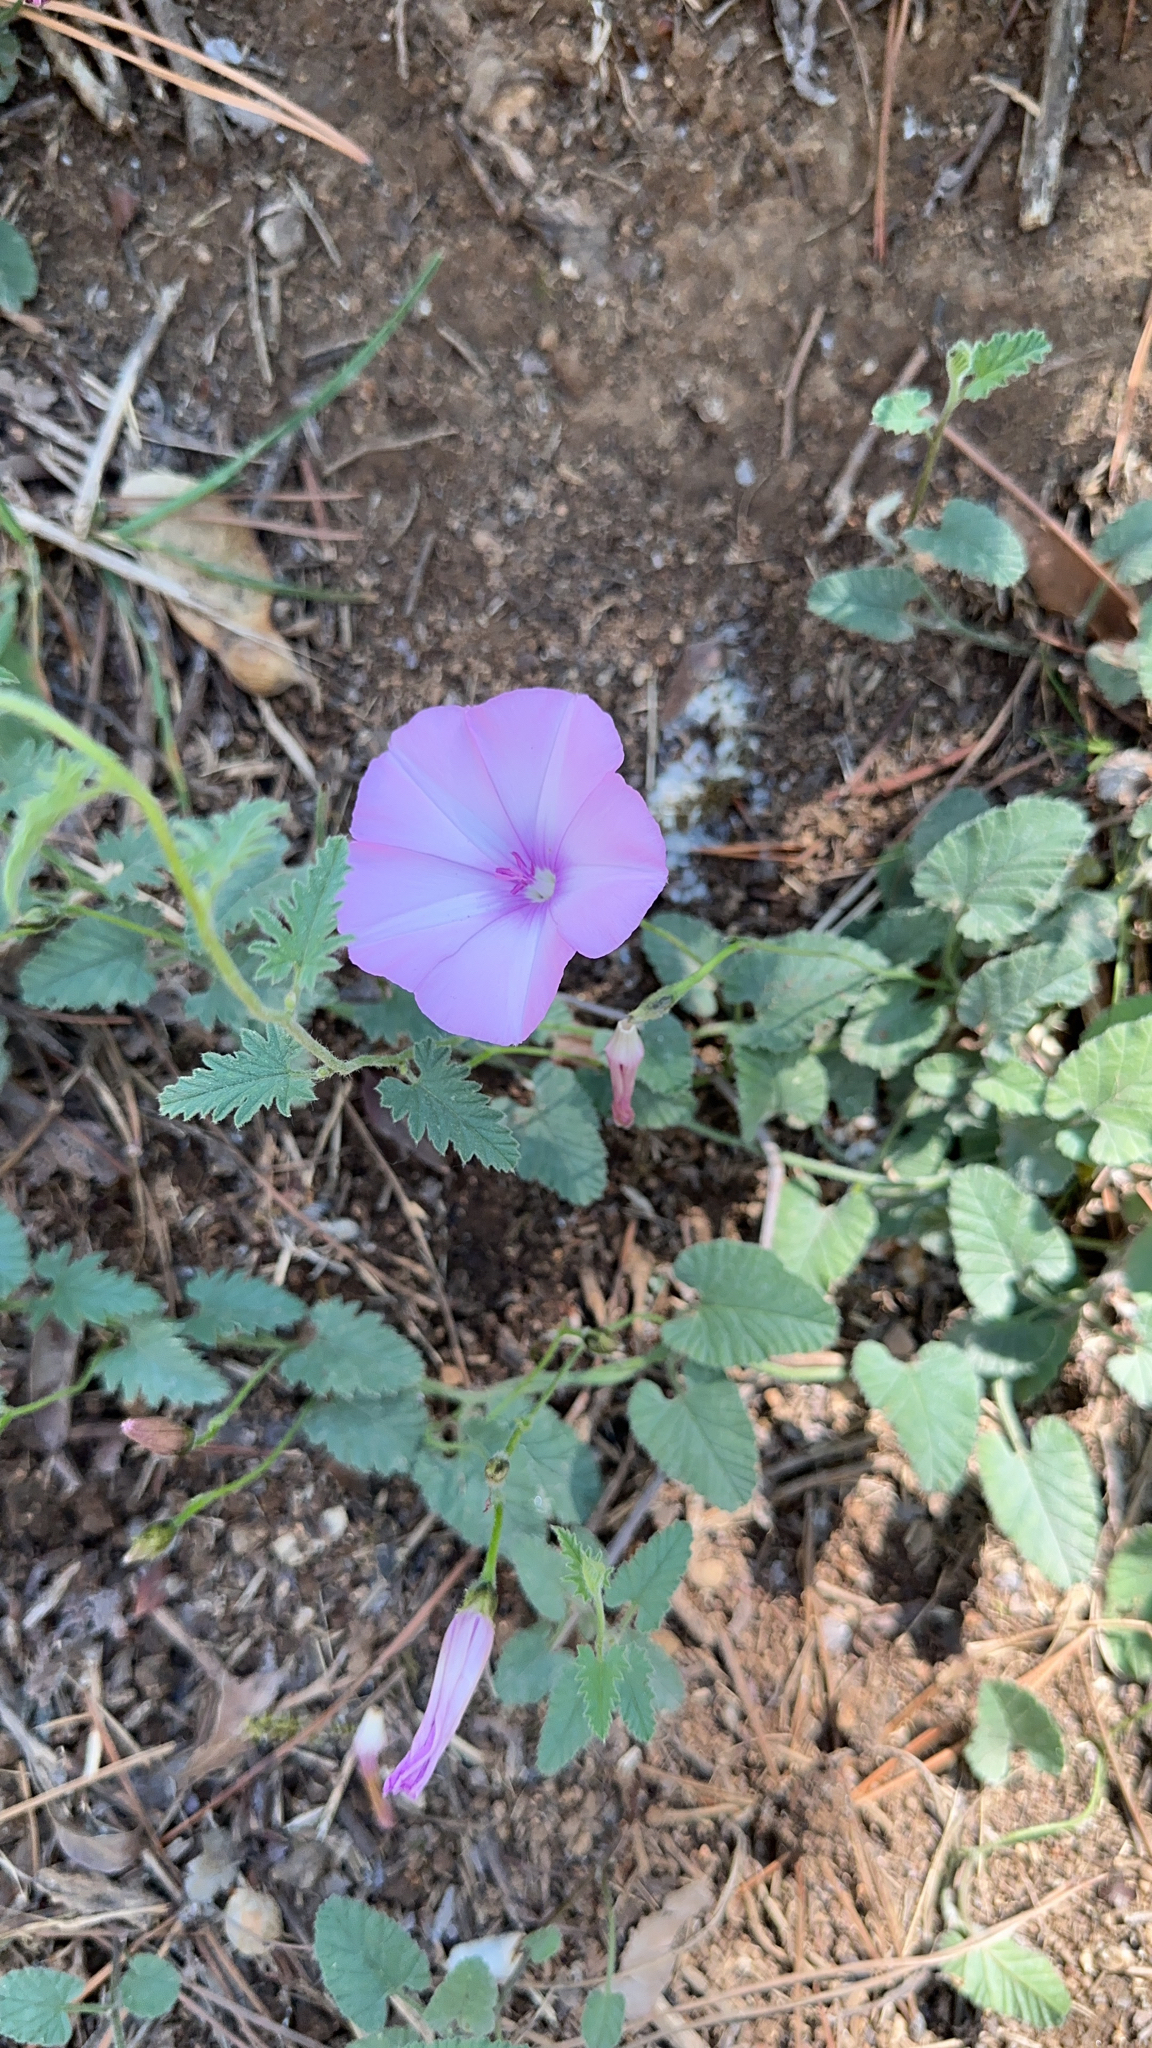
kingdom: Plantae
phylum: Tracheophyta
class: Magnoliopsida
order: Solanales
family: Convolvulaceae
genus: Convolvulus
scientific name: Convolvulus althaeoides
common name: Mallow bindweed
